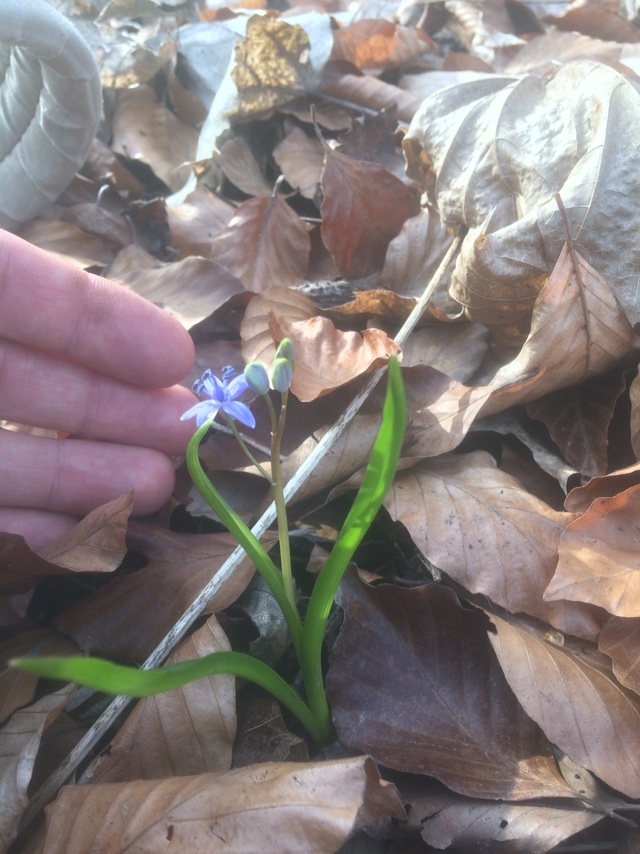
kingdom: Plantae
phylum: Tracheophyta
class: Liliopsida
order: Asparagales
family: Asparagaceae
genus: Scilla
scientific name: Scilla vindobonensis
